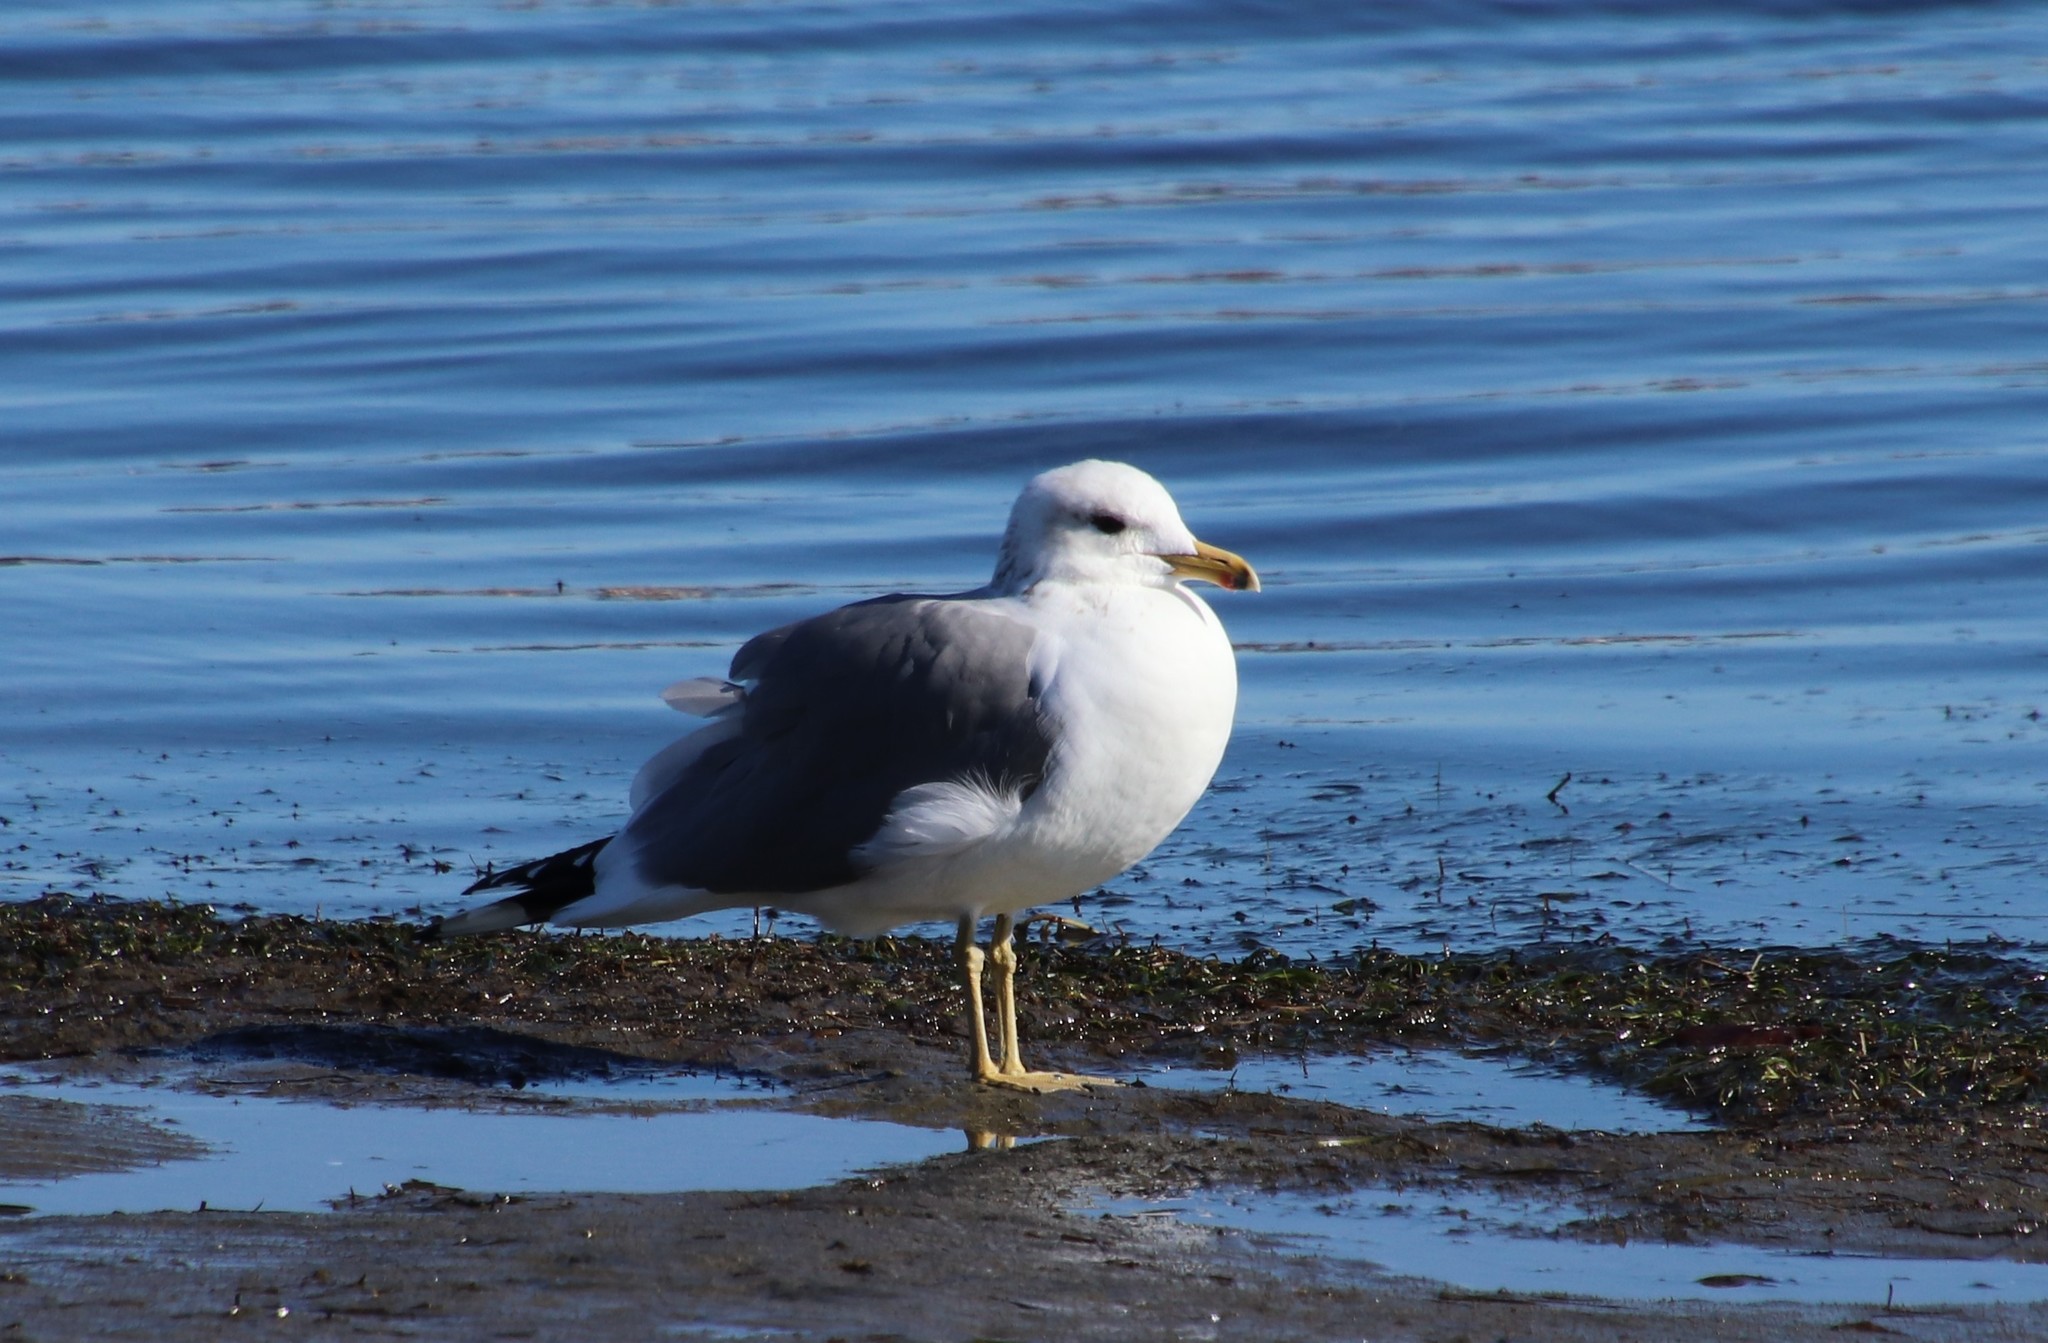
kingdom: Animalia
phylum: Chordata
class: Aves
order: Charadriiformes
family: Laridae
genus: Larus
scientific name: Larus californicus
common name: California gull
